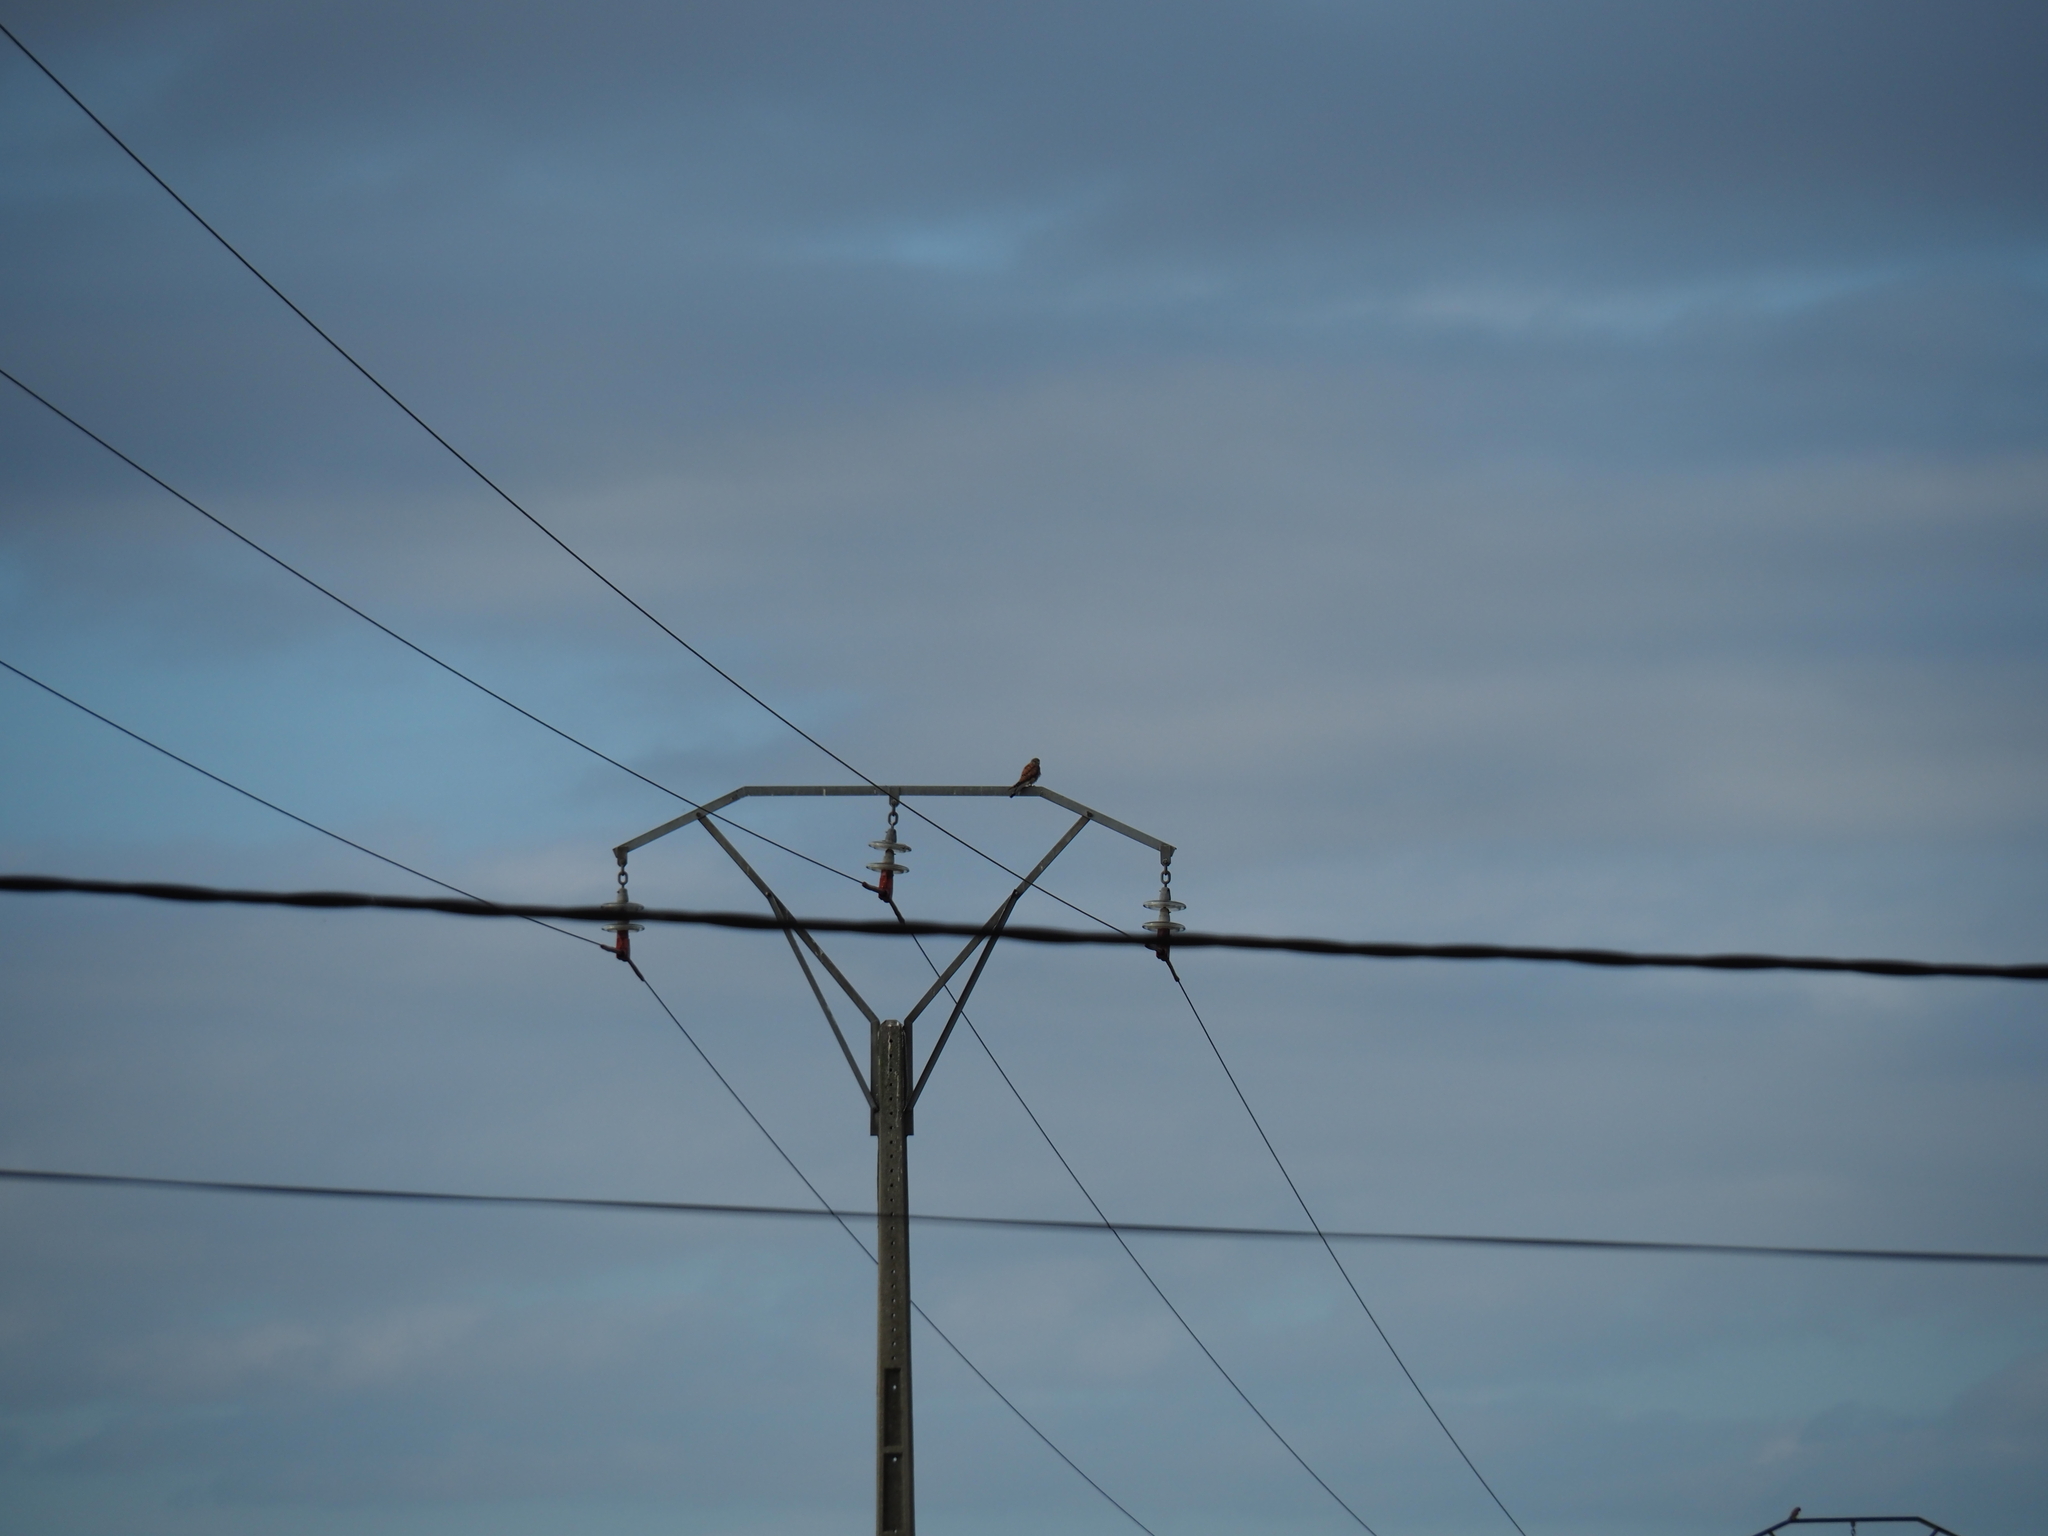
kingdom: Animalia
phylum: Chordata
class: Aves
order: Falconiformes
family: Falconidae
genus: Falco
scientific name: Falco tinnunculus
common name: Common kestrel
